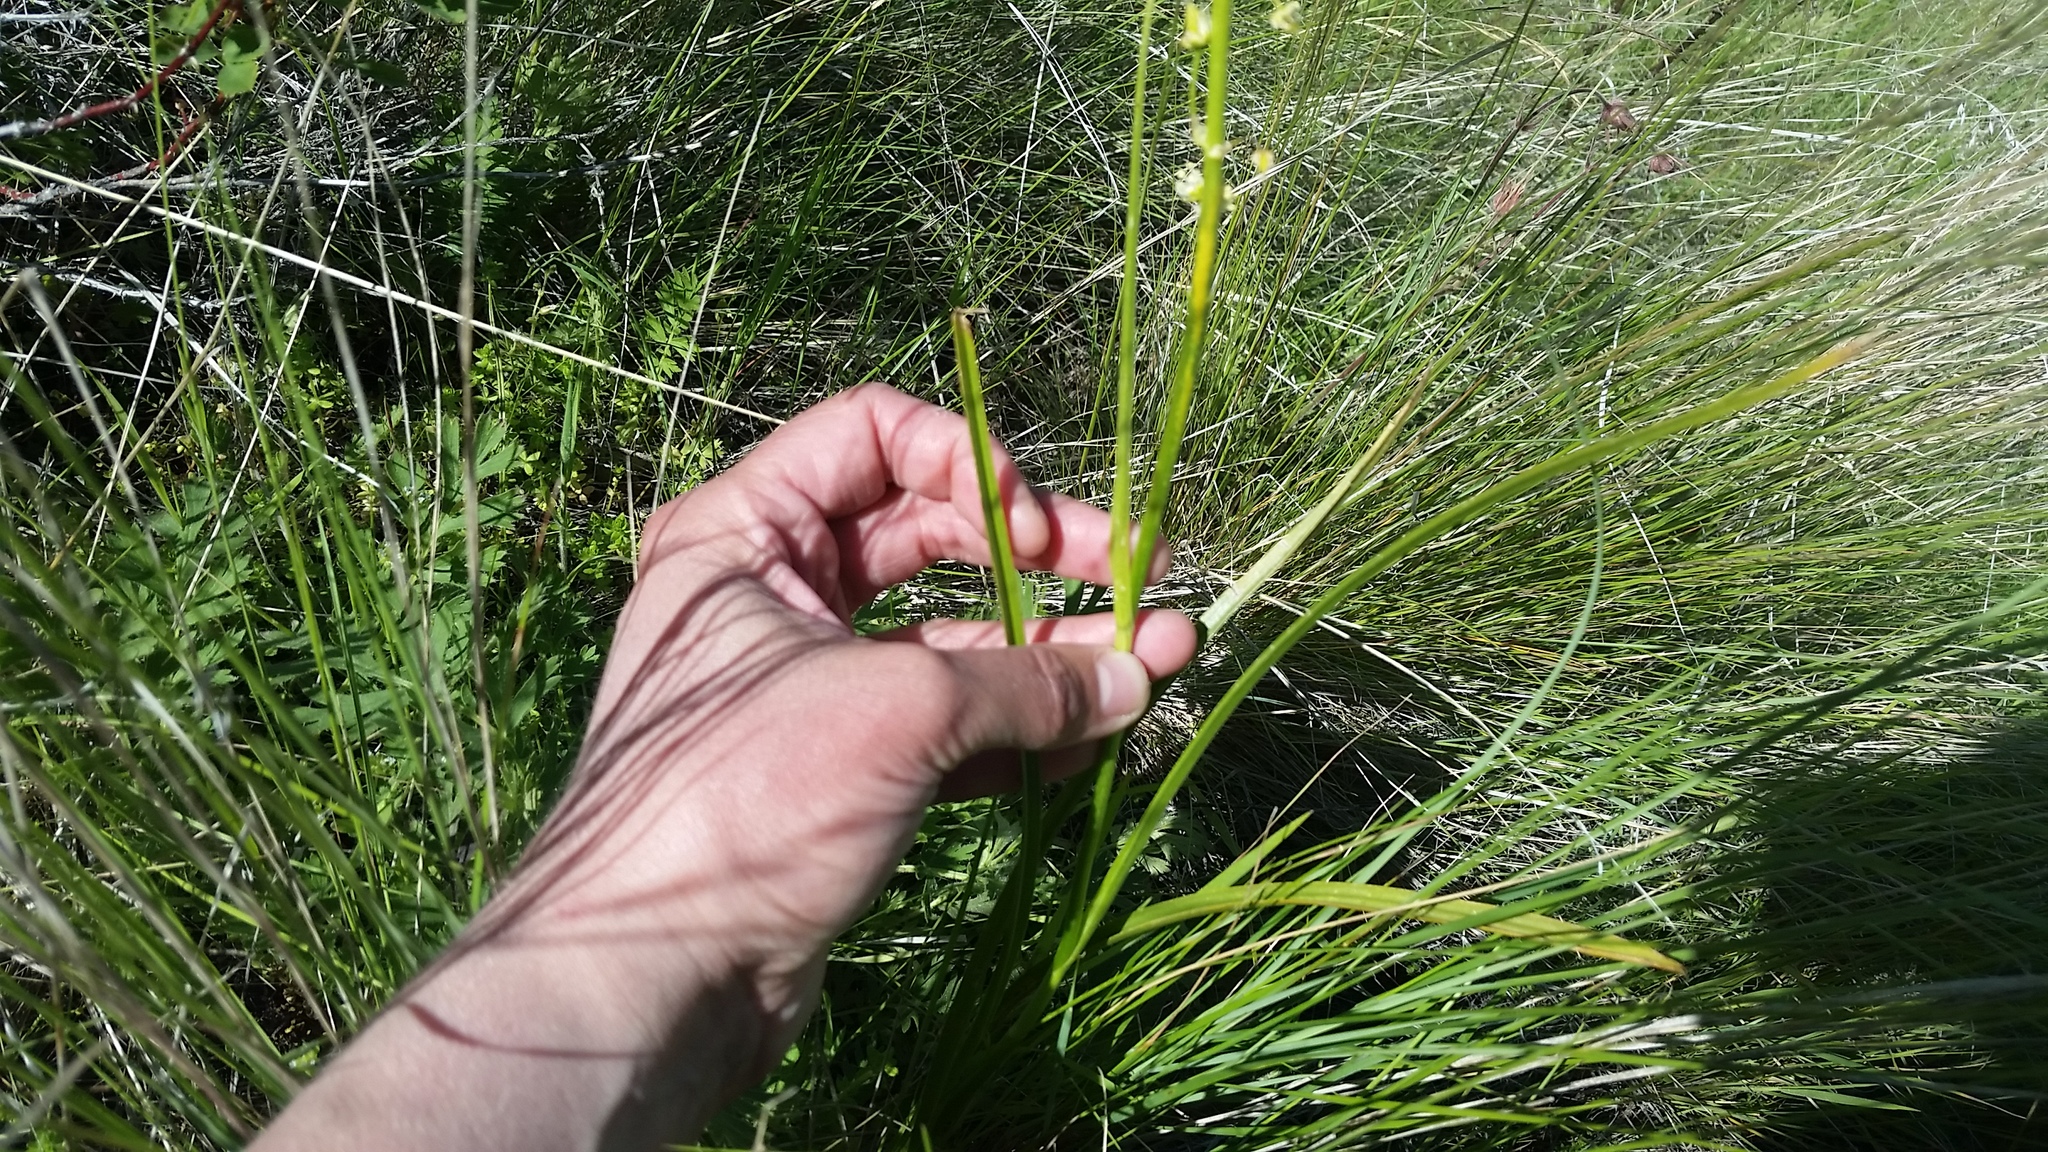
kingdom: Plantae
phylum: Tracheophyta
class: Liliopsida
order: Liliales
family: Melanthiaceae
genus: Toxicoscordion
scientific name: Toxicoscordion paniculatum
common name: Foothill death camas
